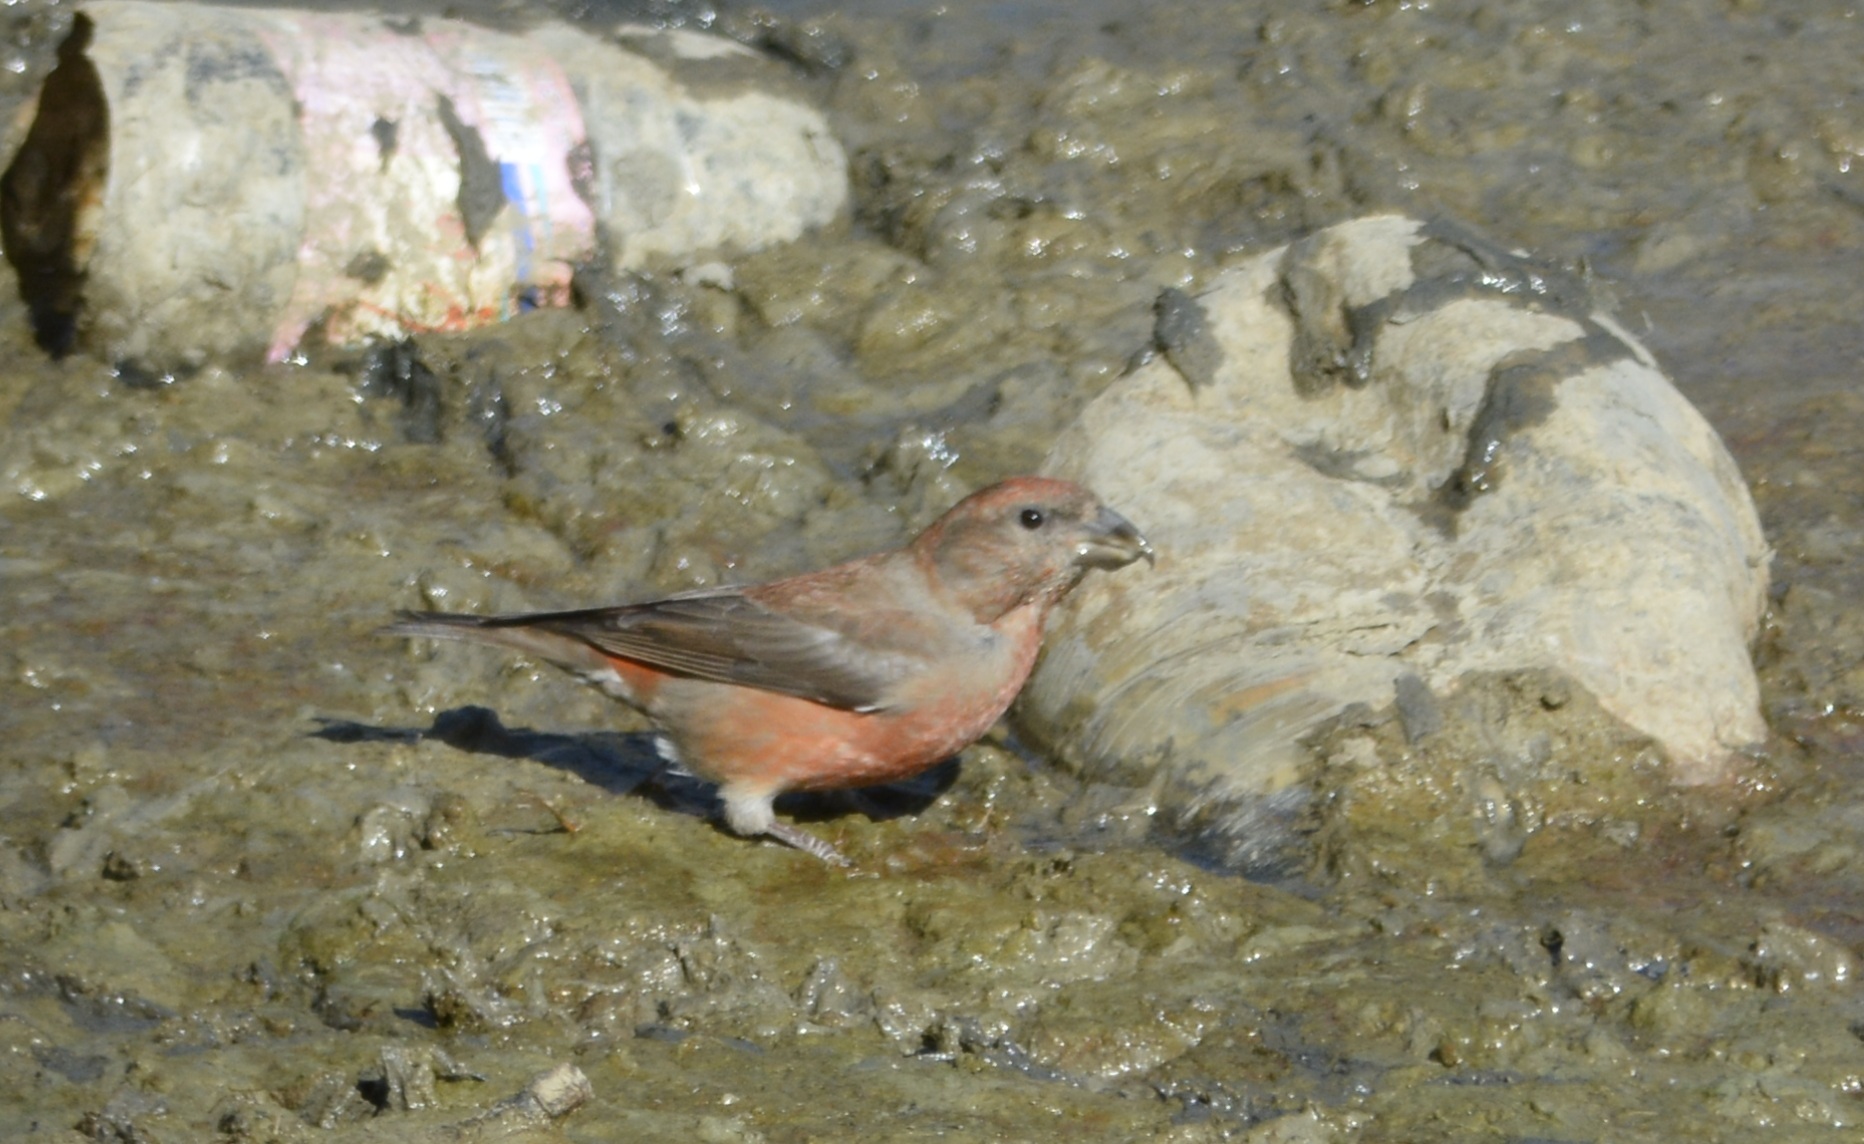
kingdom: Animalia
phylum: Chordata
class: Aves
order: Passeriformes
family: Fringillidae
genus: Loxia
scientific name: Loxia curvirostra
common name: Red crossbill
